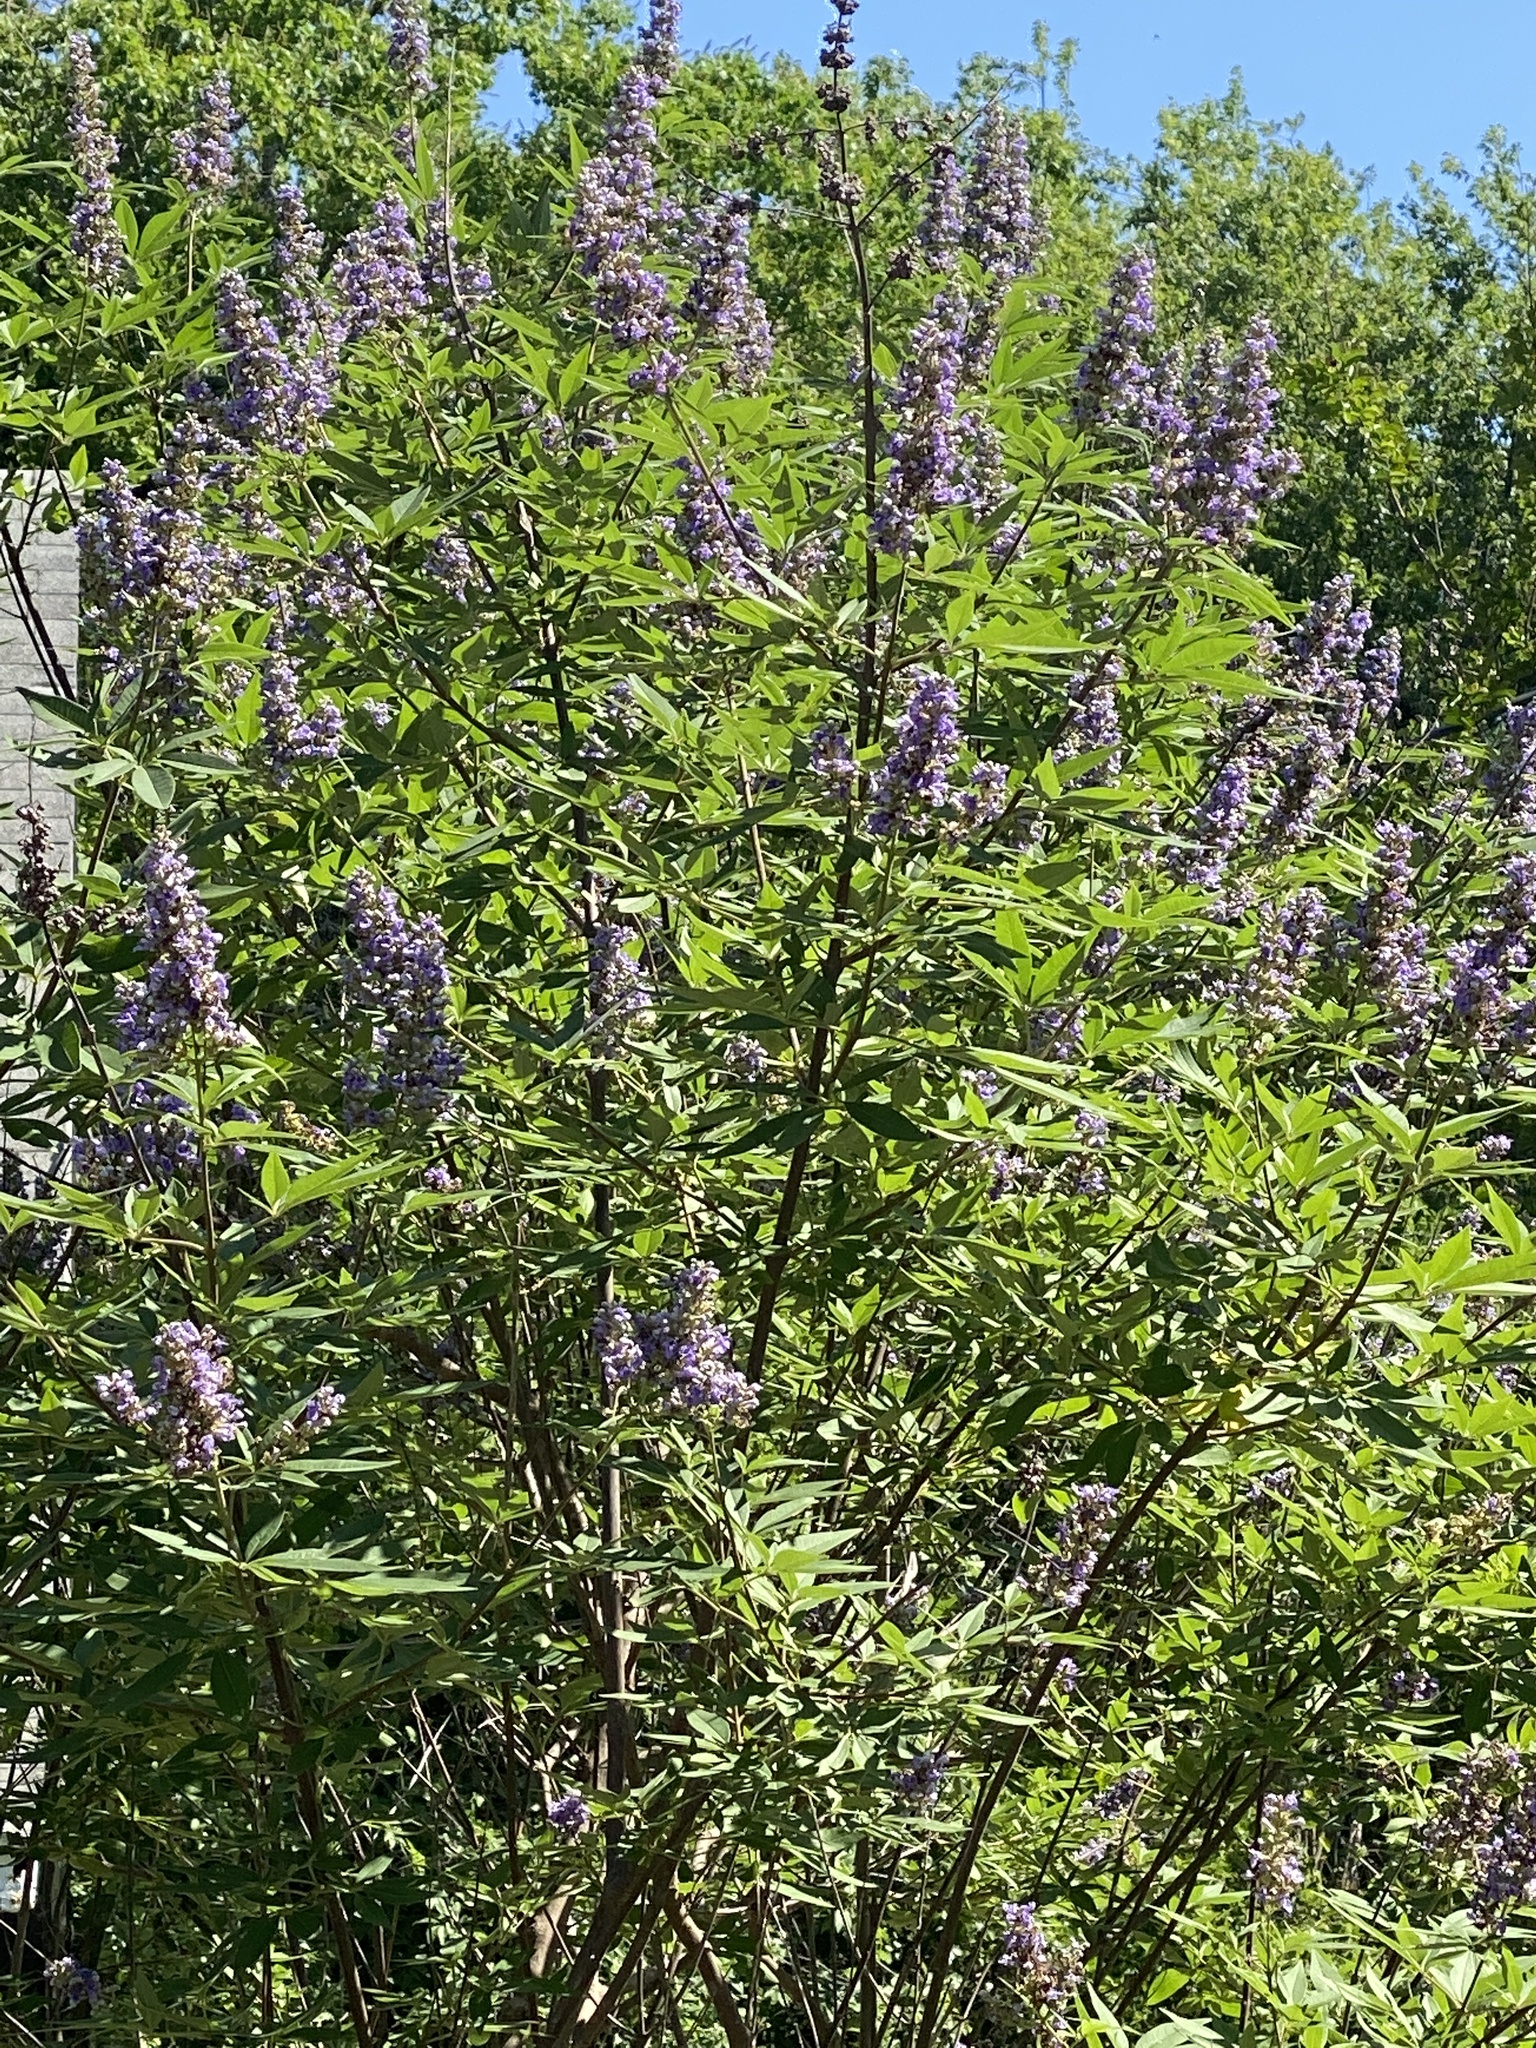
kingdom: Plantae
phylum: Tracheophyta
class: Magnoliopsida
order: Lamiales
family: Lamiaceae
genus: Vitex
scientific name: Vitex agnus-castus
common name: Chasteberry
